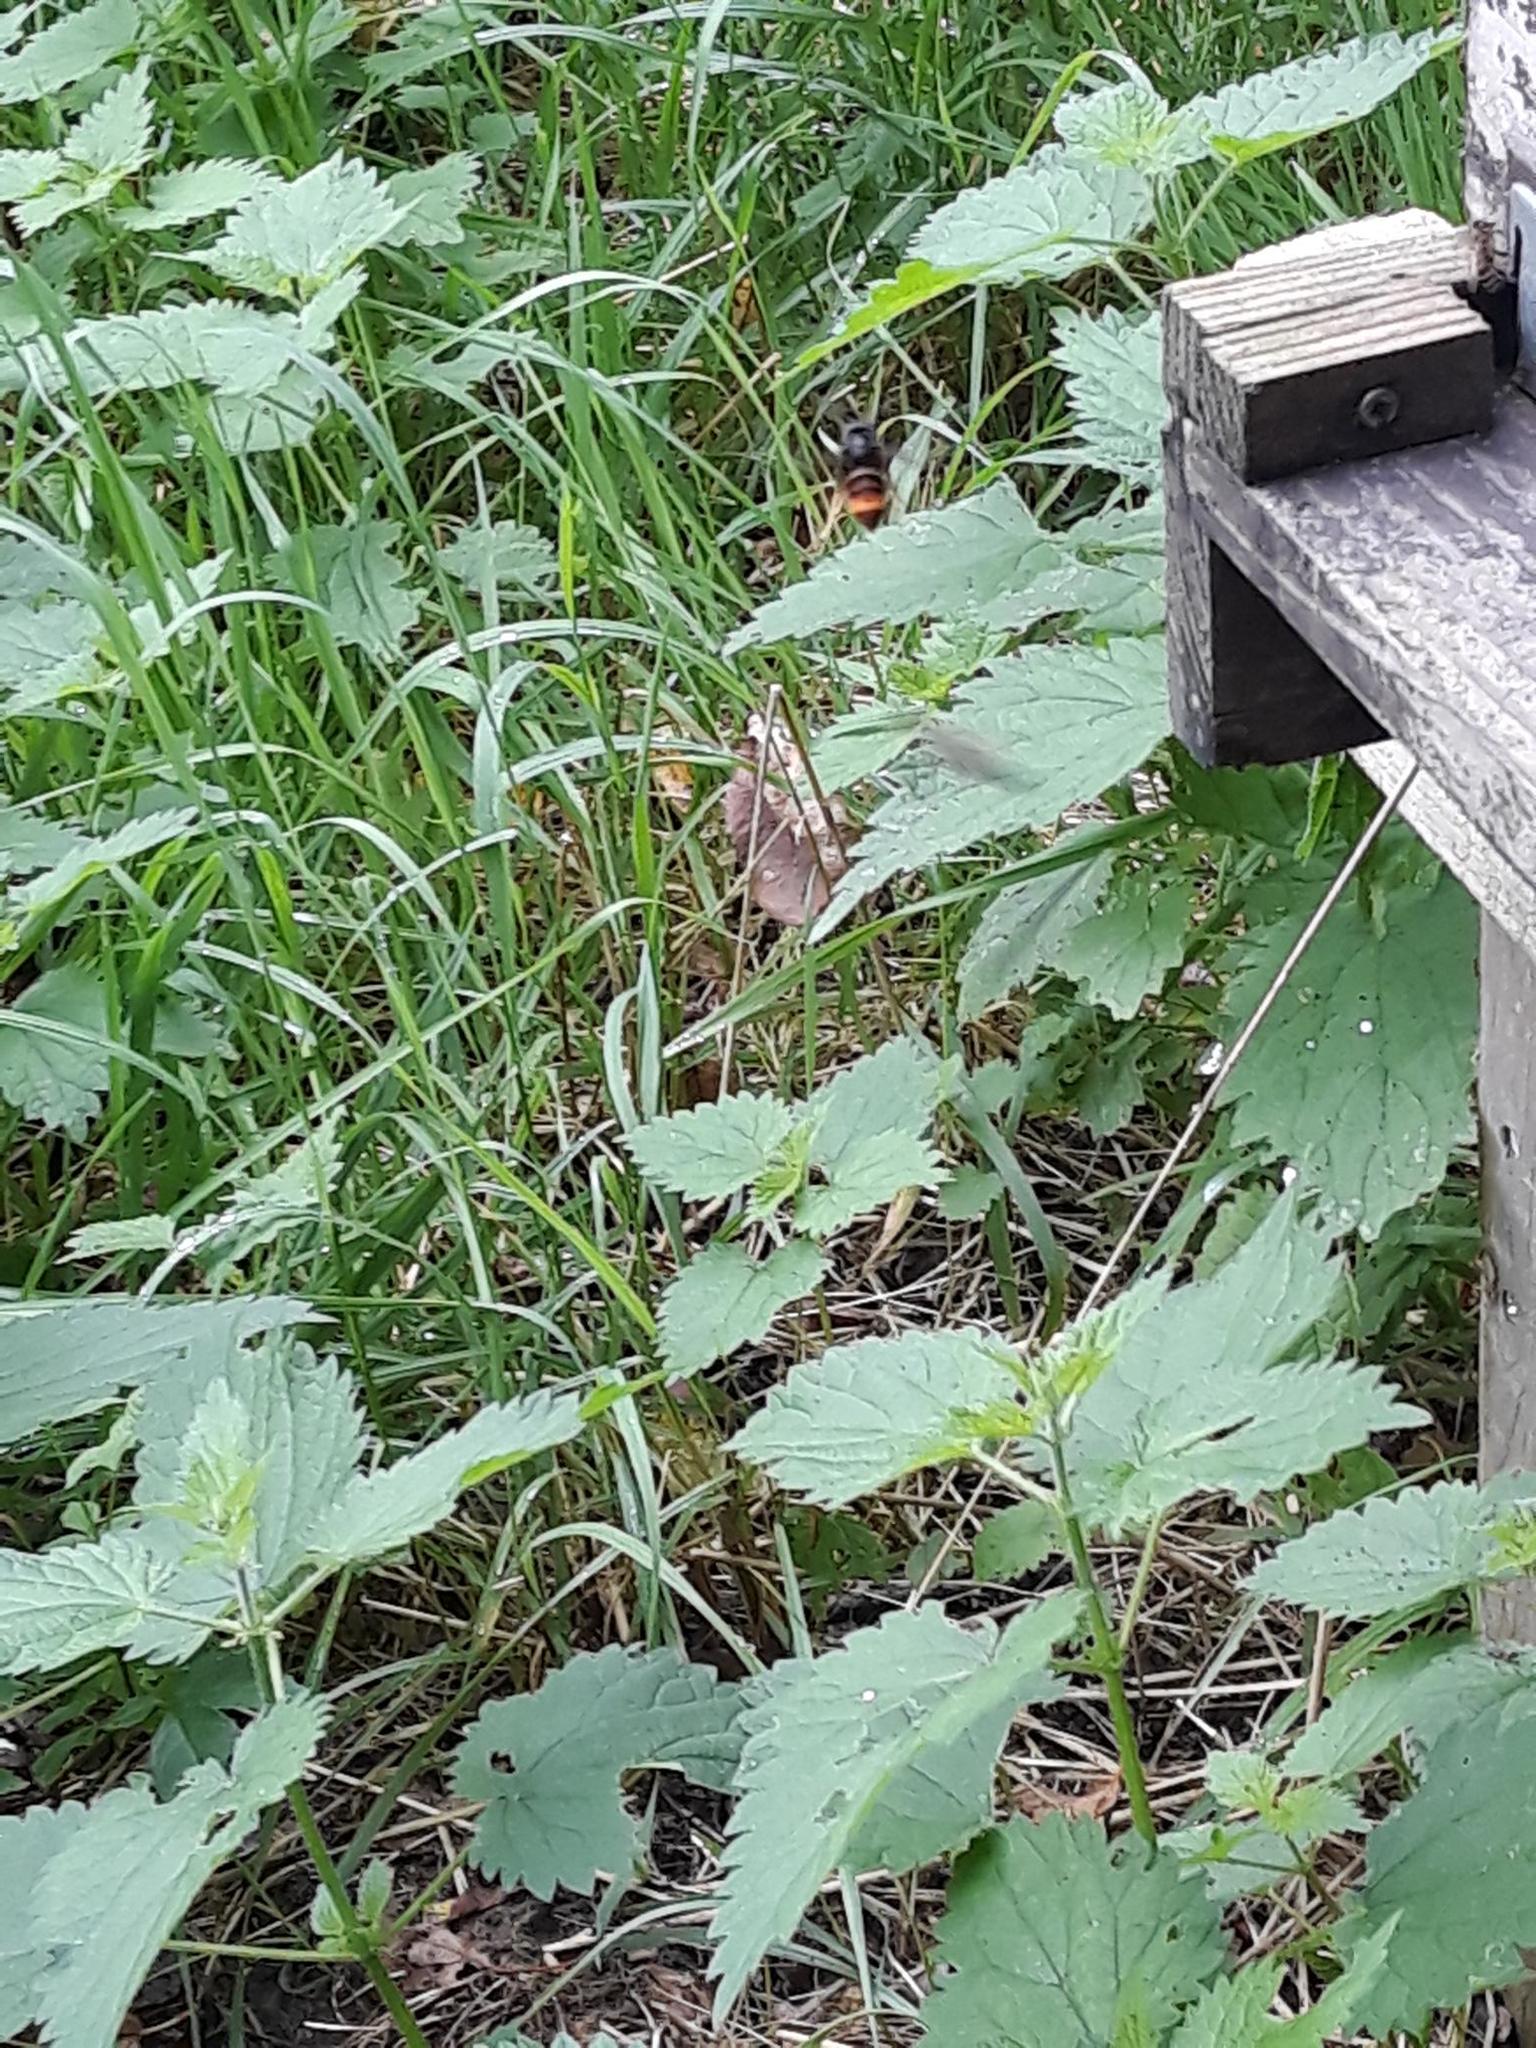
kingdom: Animalia
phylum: Arthropoda
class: Insecta
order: Hymenoptera
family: Vespidae
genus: Vespa
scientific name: Vespa velutina
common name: Asian hornet
